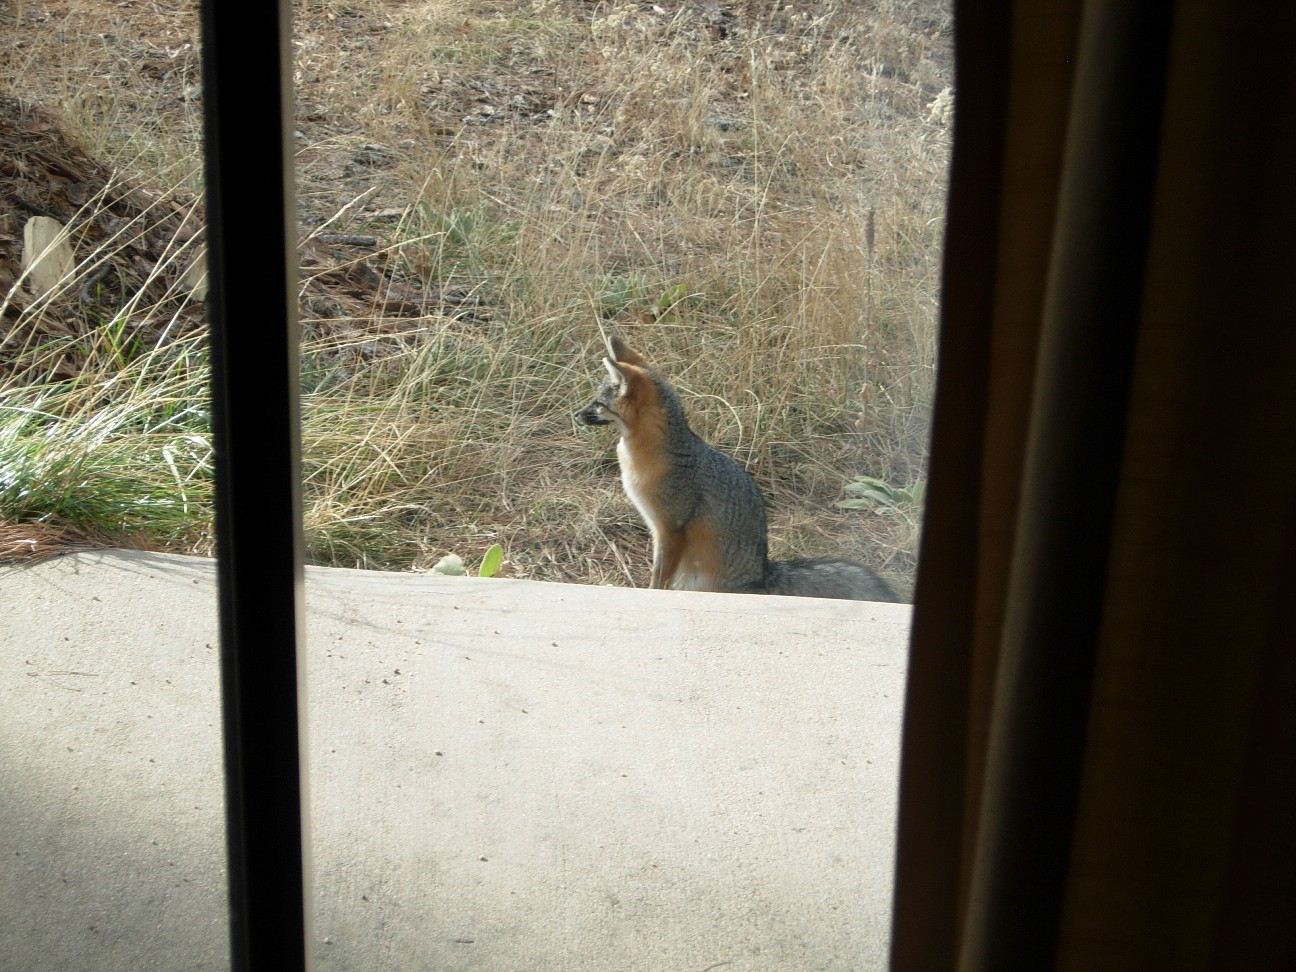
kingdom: Animalia
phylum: Chordata
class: Mammalia
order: Carnivora
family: Canidae
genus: Urocyon
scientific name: Urocyon cinereoargenteus
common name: Gray fox
